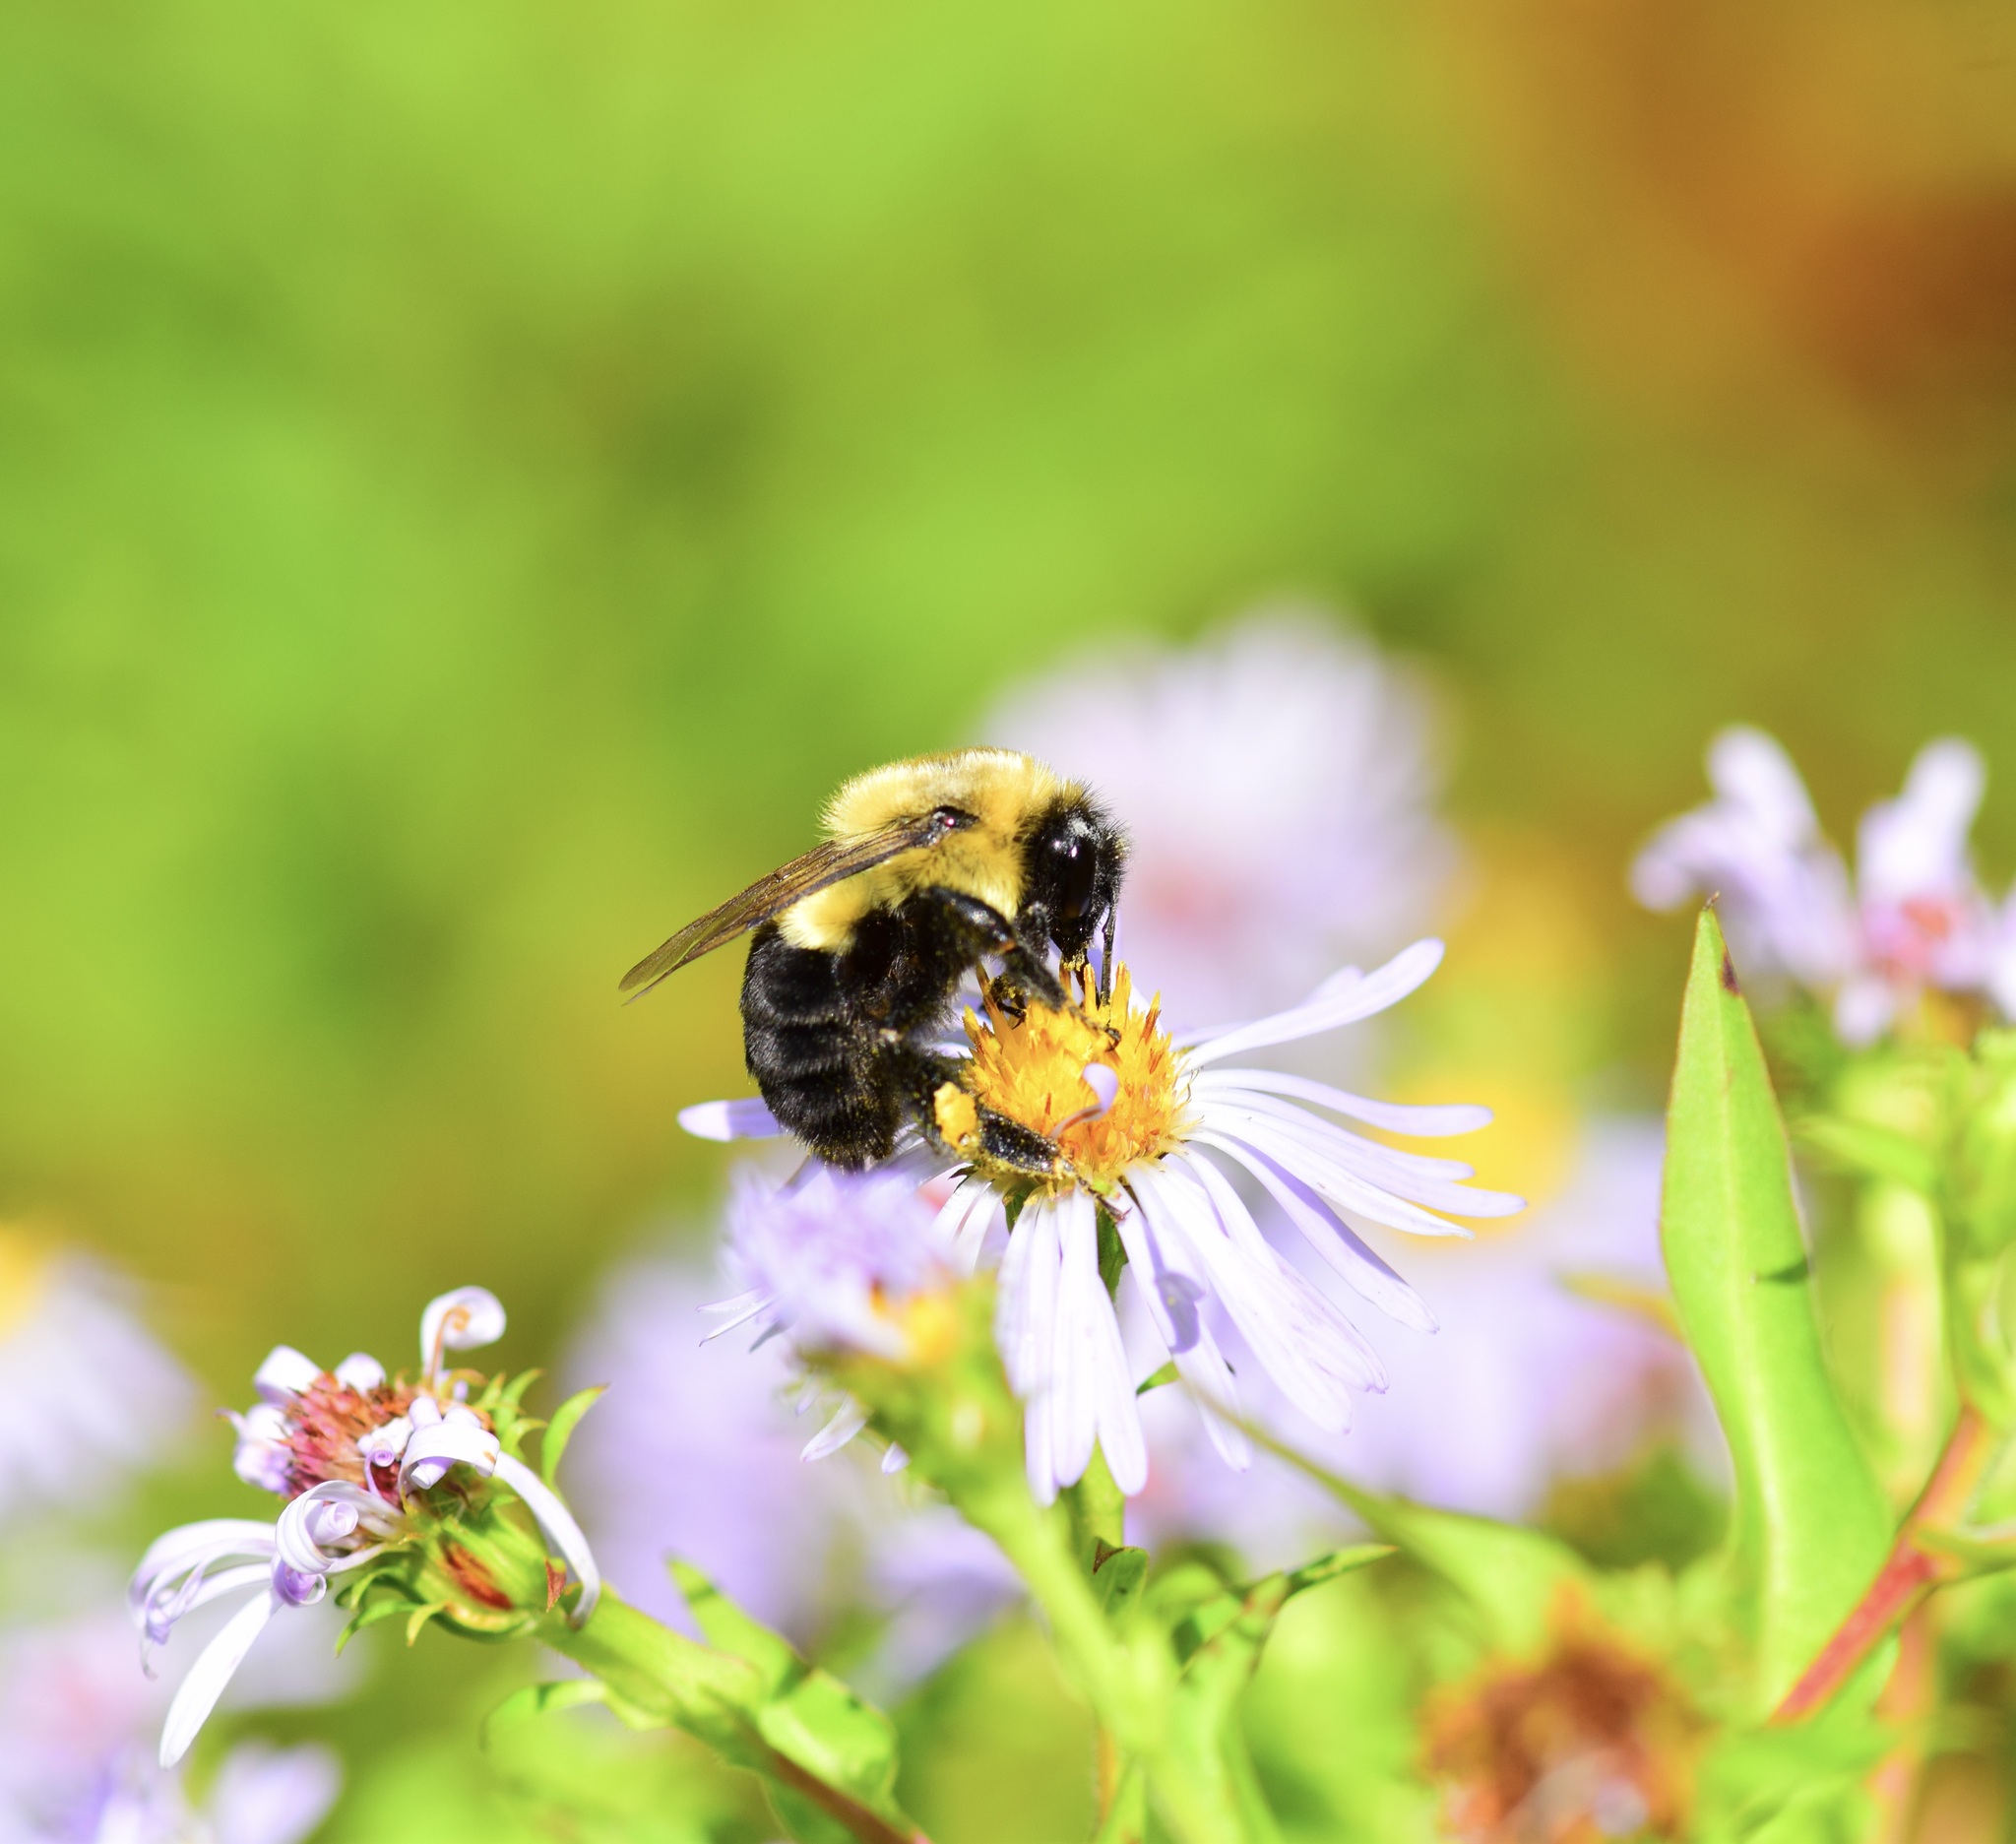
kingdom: Animalia
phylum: Arthropoda
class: Insecta
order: Hymenoptera
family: Apidae
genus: Bombus
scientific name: Bombus impatiens
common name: Common eastern bumble bee
